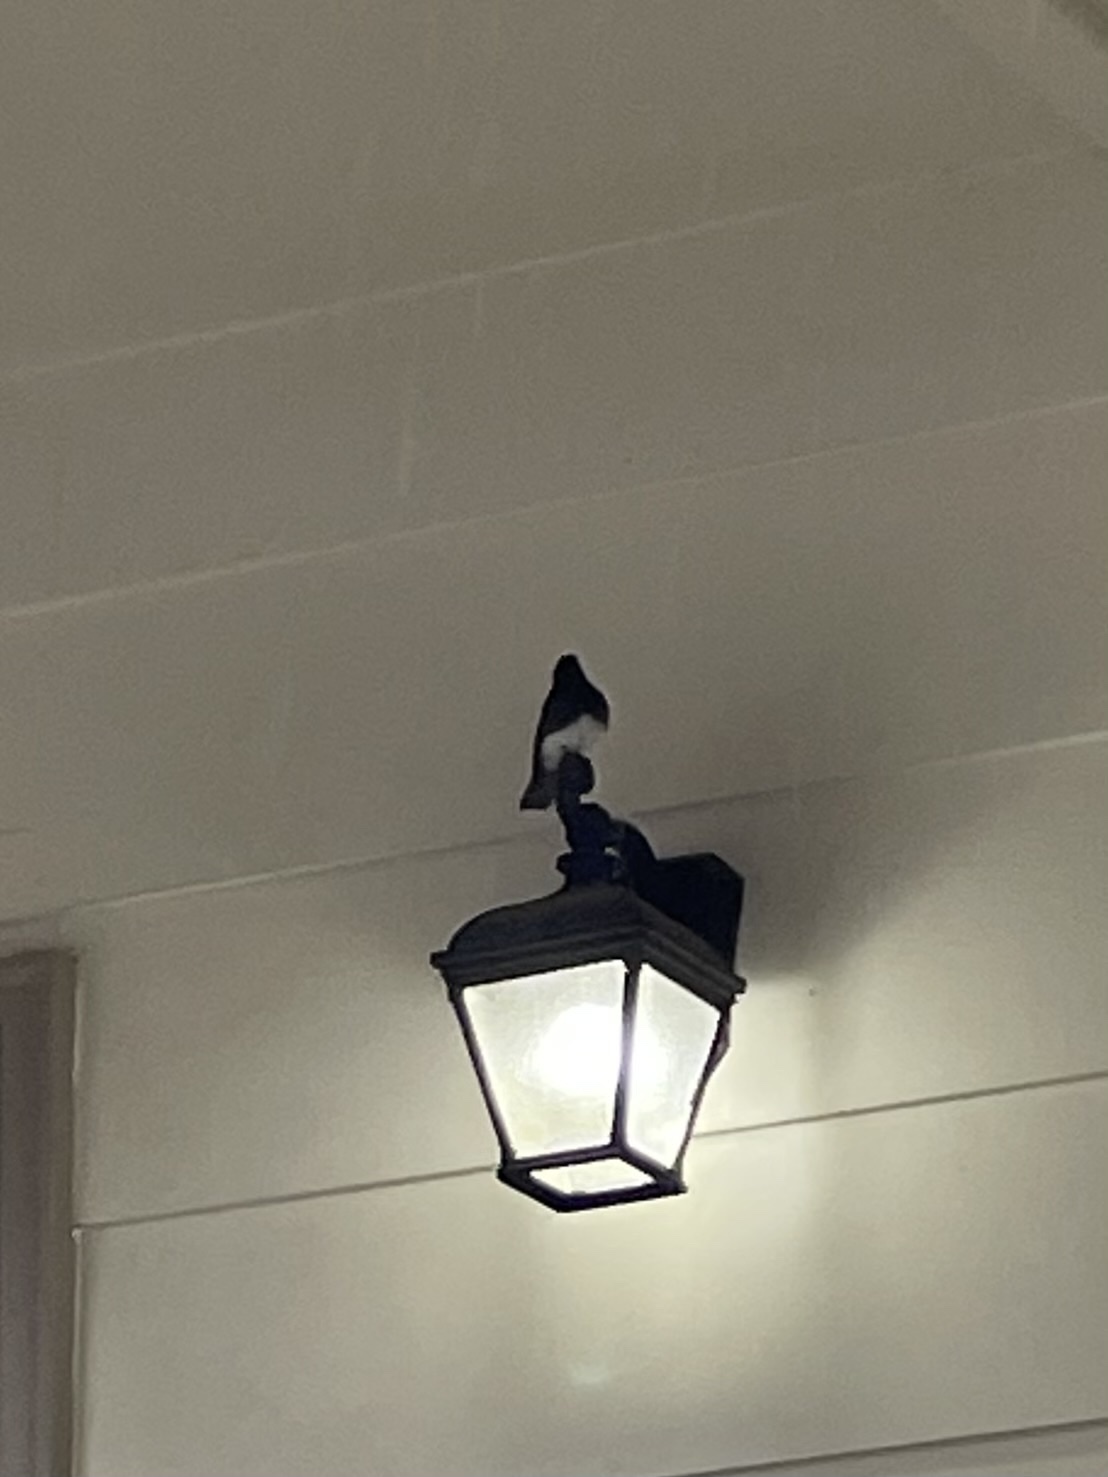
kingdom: Animalia
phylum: Chordata
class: Aves
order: Passeriformes
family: Tyrannidae
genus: Sayornis
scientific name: Sayornis nigricans
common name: Black phoebe
